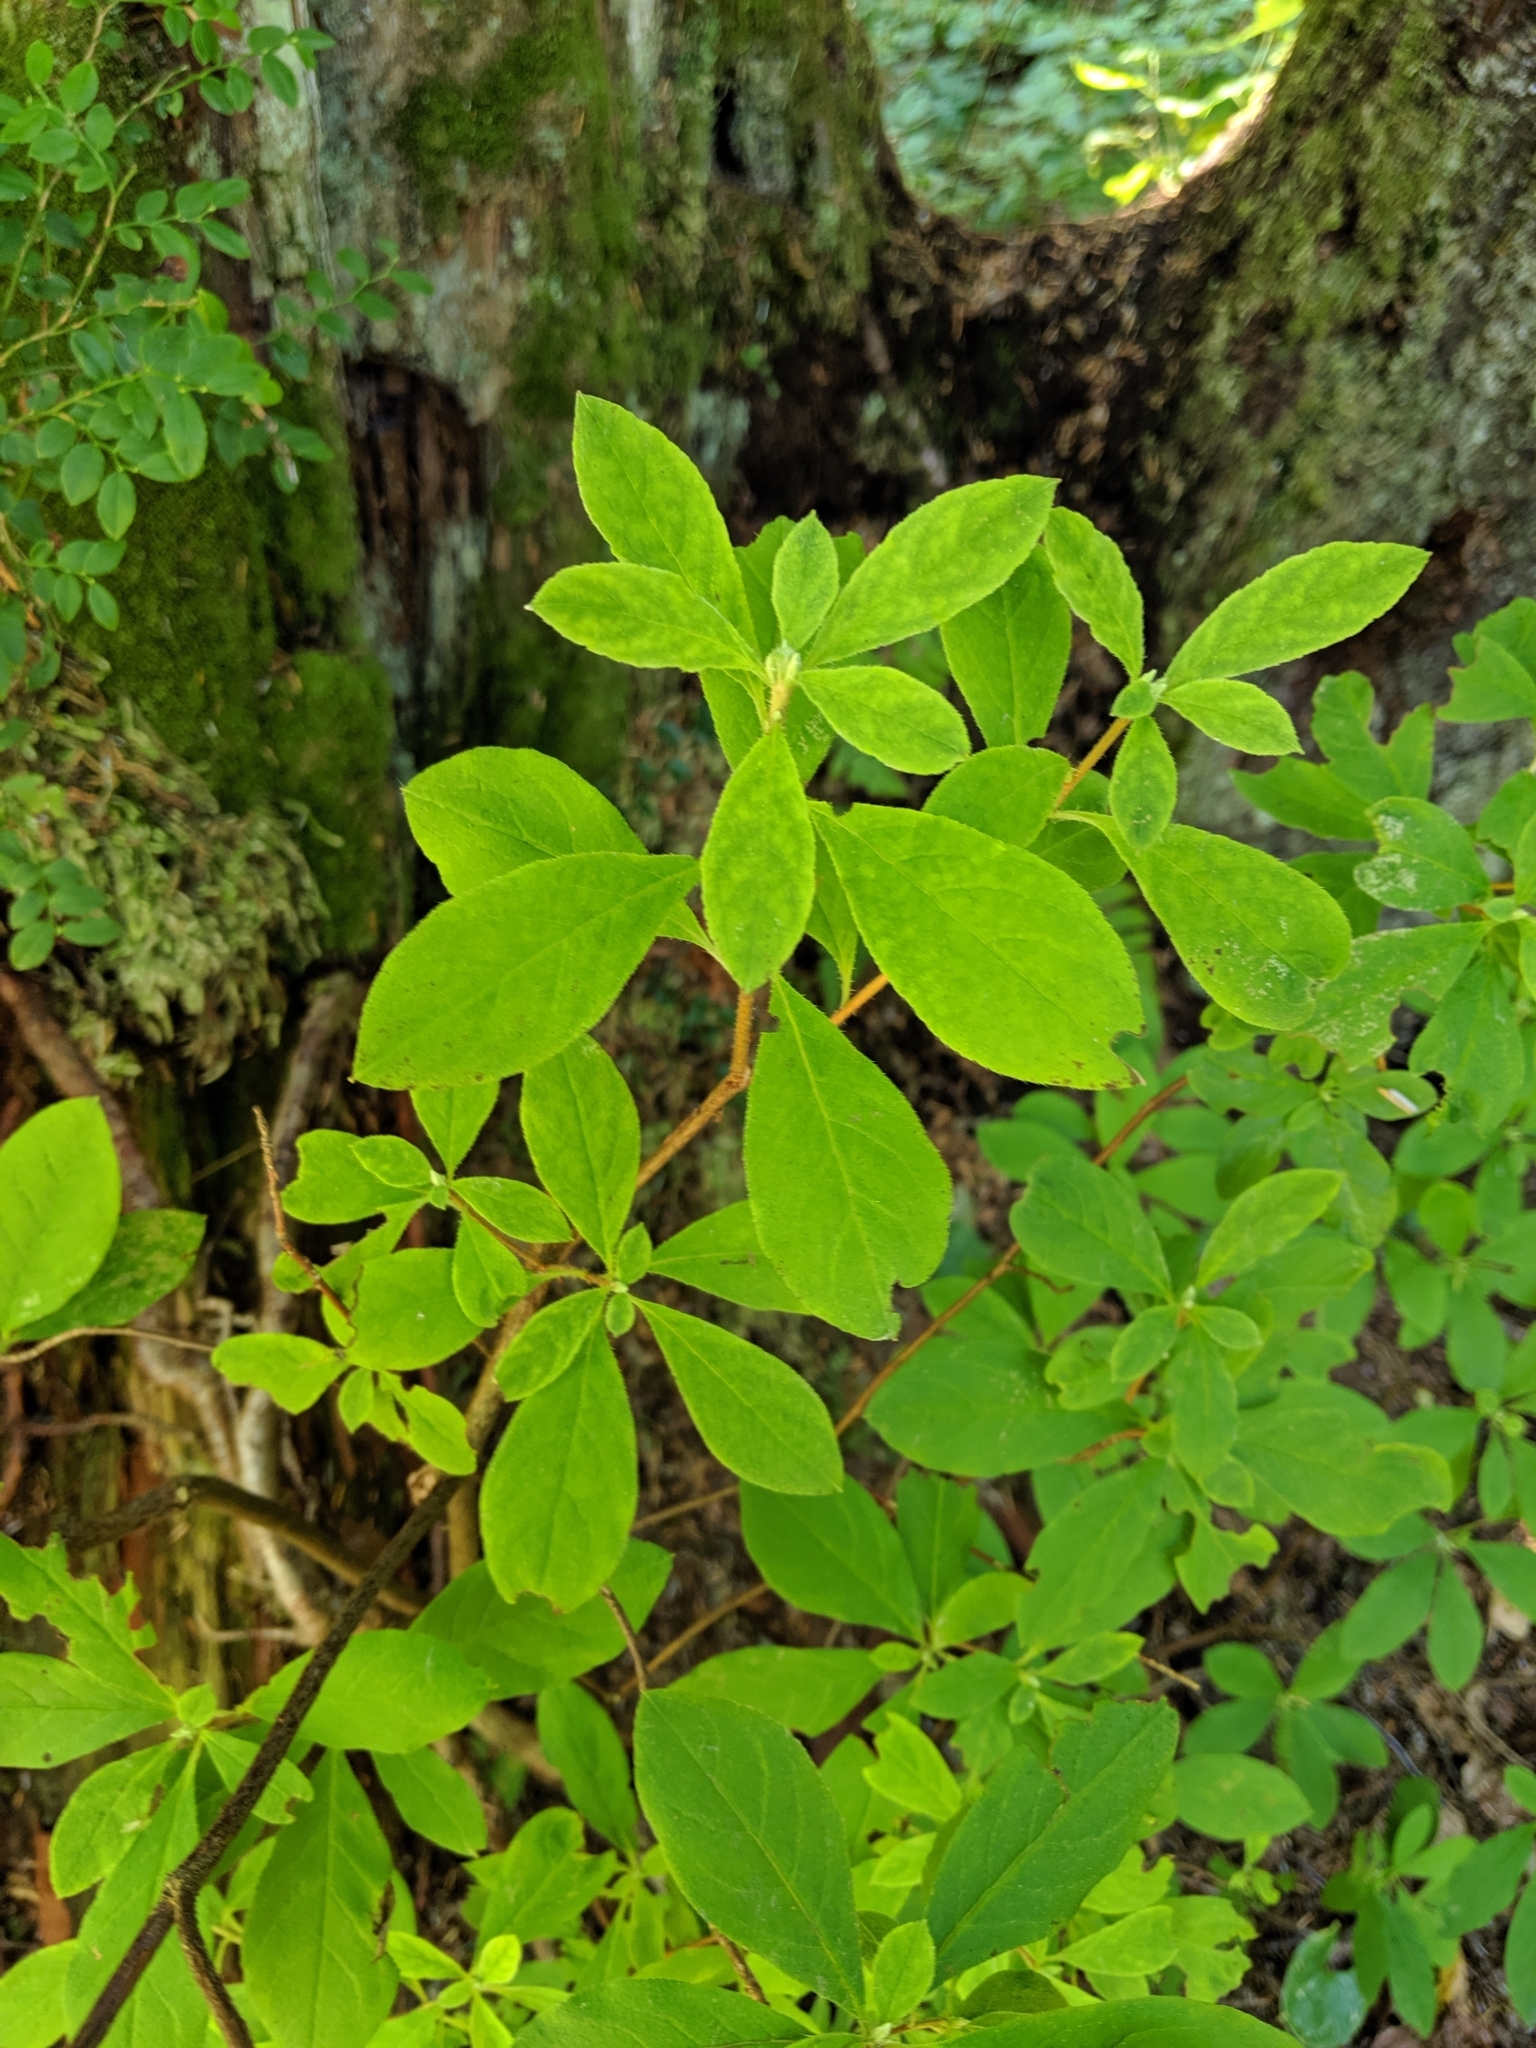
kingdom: Plantae
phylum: Tracheophyta
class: Magnoliopsida
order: Ericales
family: Ericaceae
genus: Rhododendron
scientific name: Rhododendron menziesii
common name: Pacific menziesia
